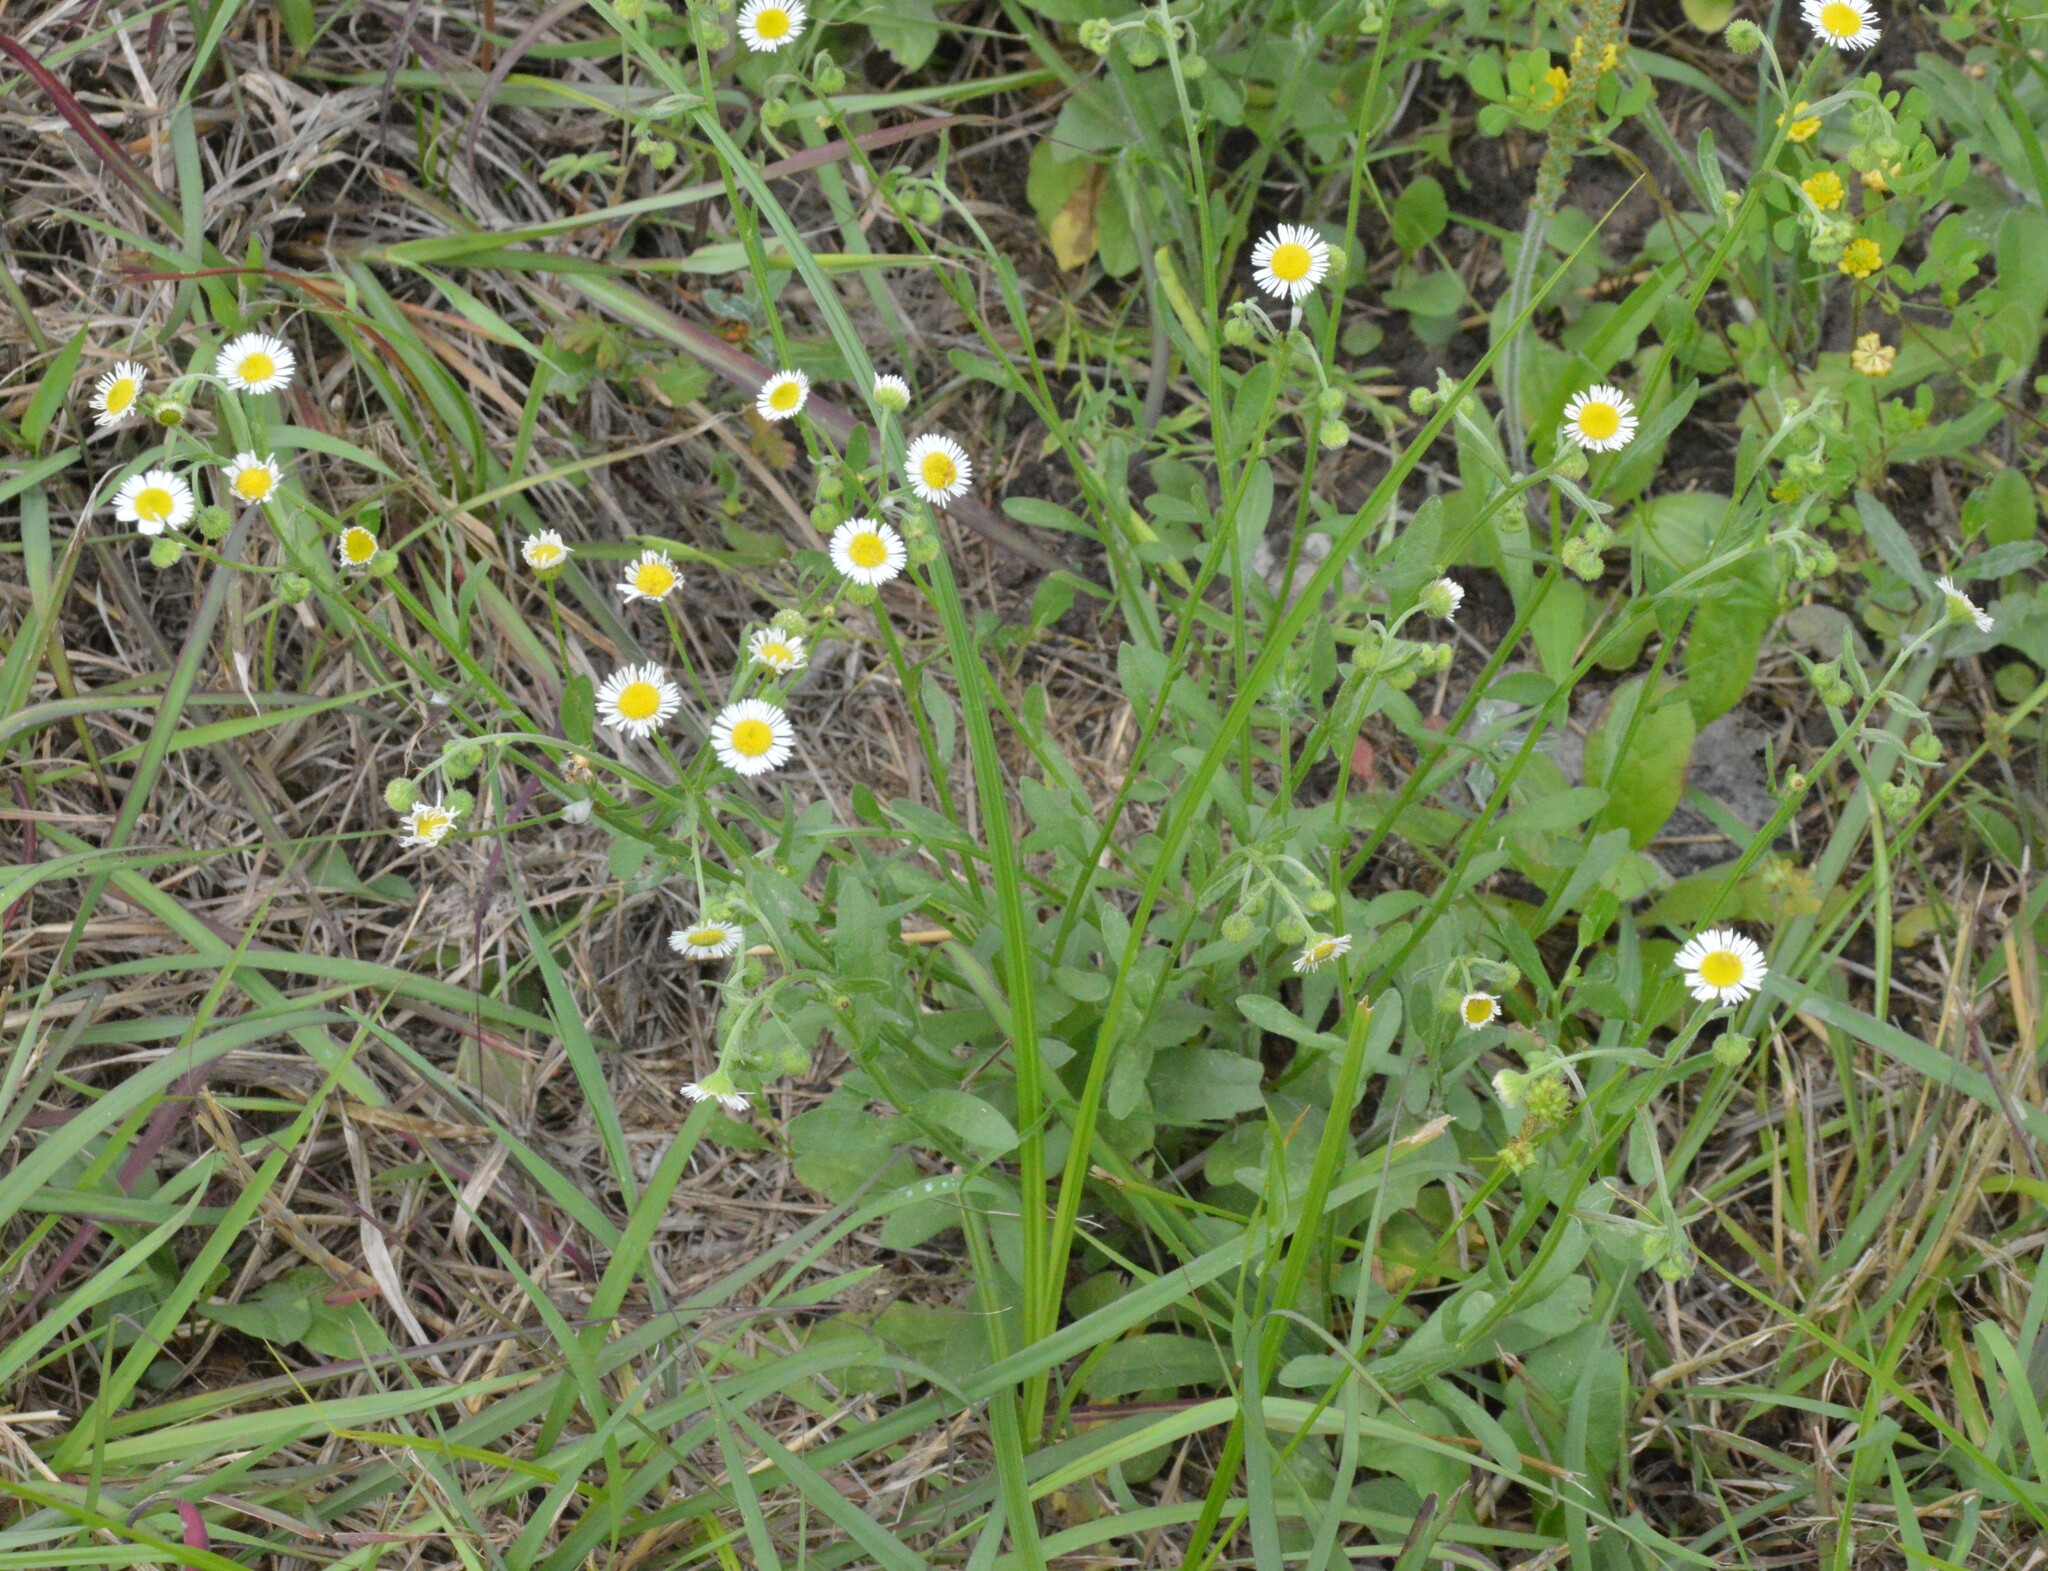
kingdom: Plantae
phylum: Tracheophyta
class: Magnoliopsida
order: Asterales
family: Asteraceae
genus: Erigeron
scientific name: Erigeron tenuis
